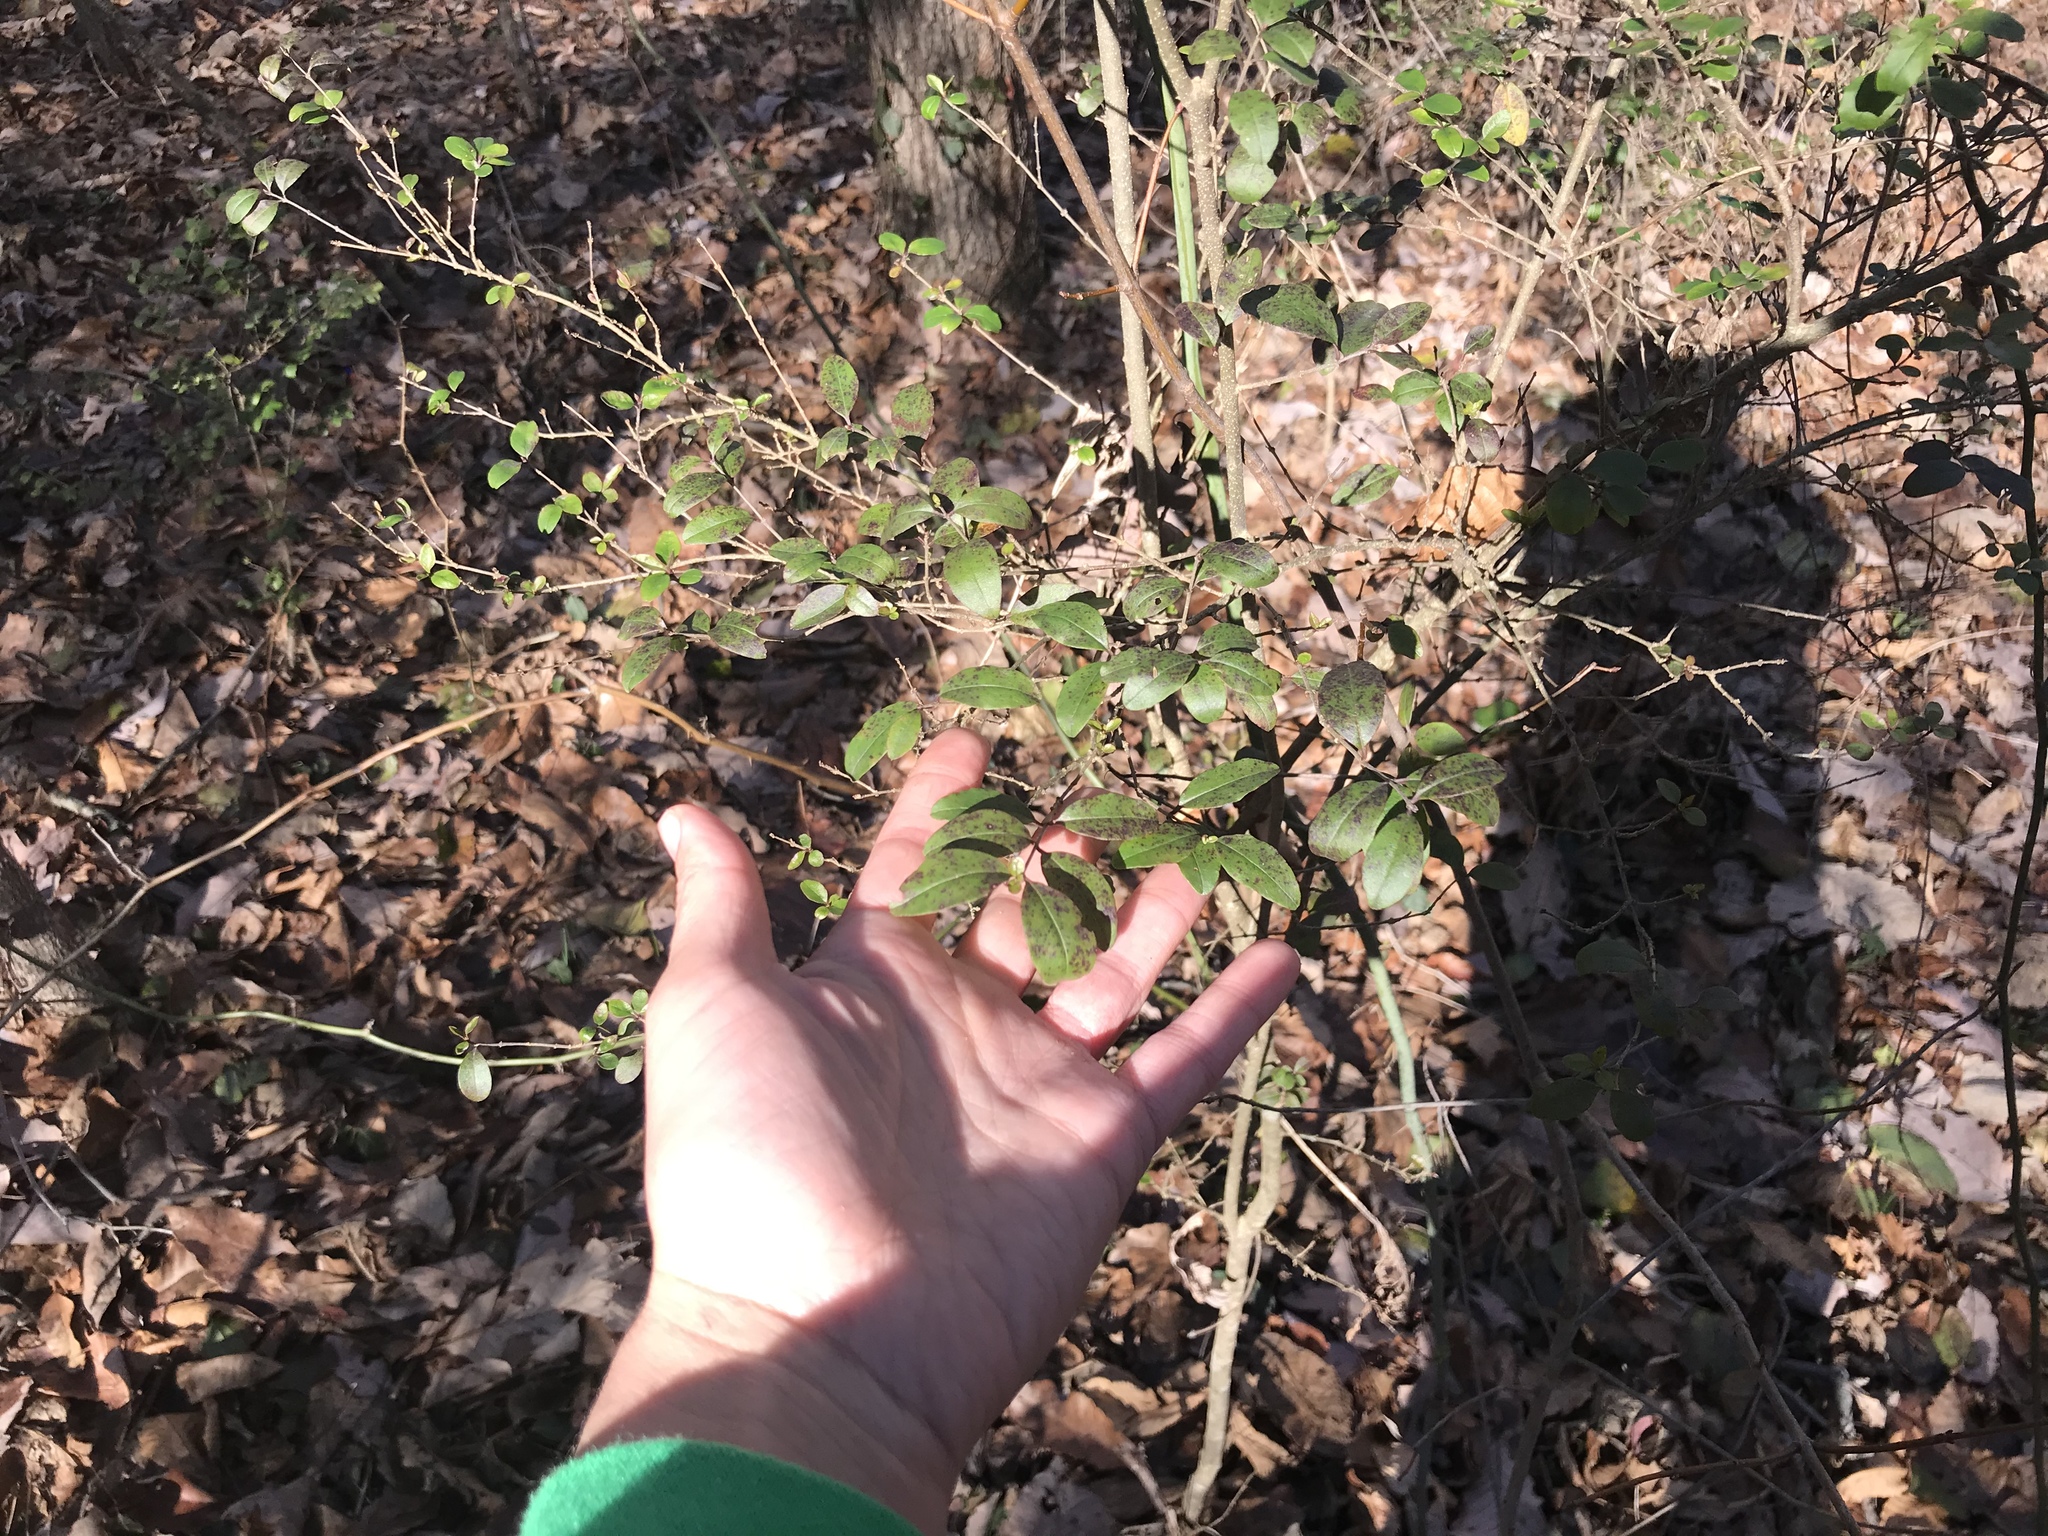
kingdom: Plantae
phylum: Tracheophyta
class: Magnoliopsida
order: Lamiales
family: Oleaceae
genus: Ligustrum
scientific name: Ligustrum sinense
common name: Chinese privet
